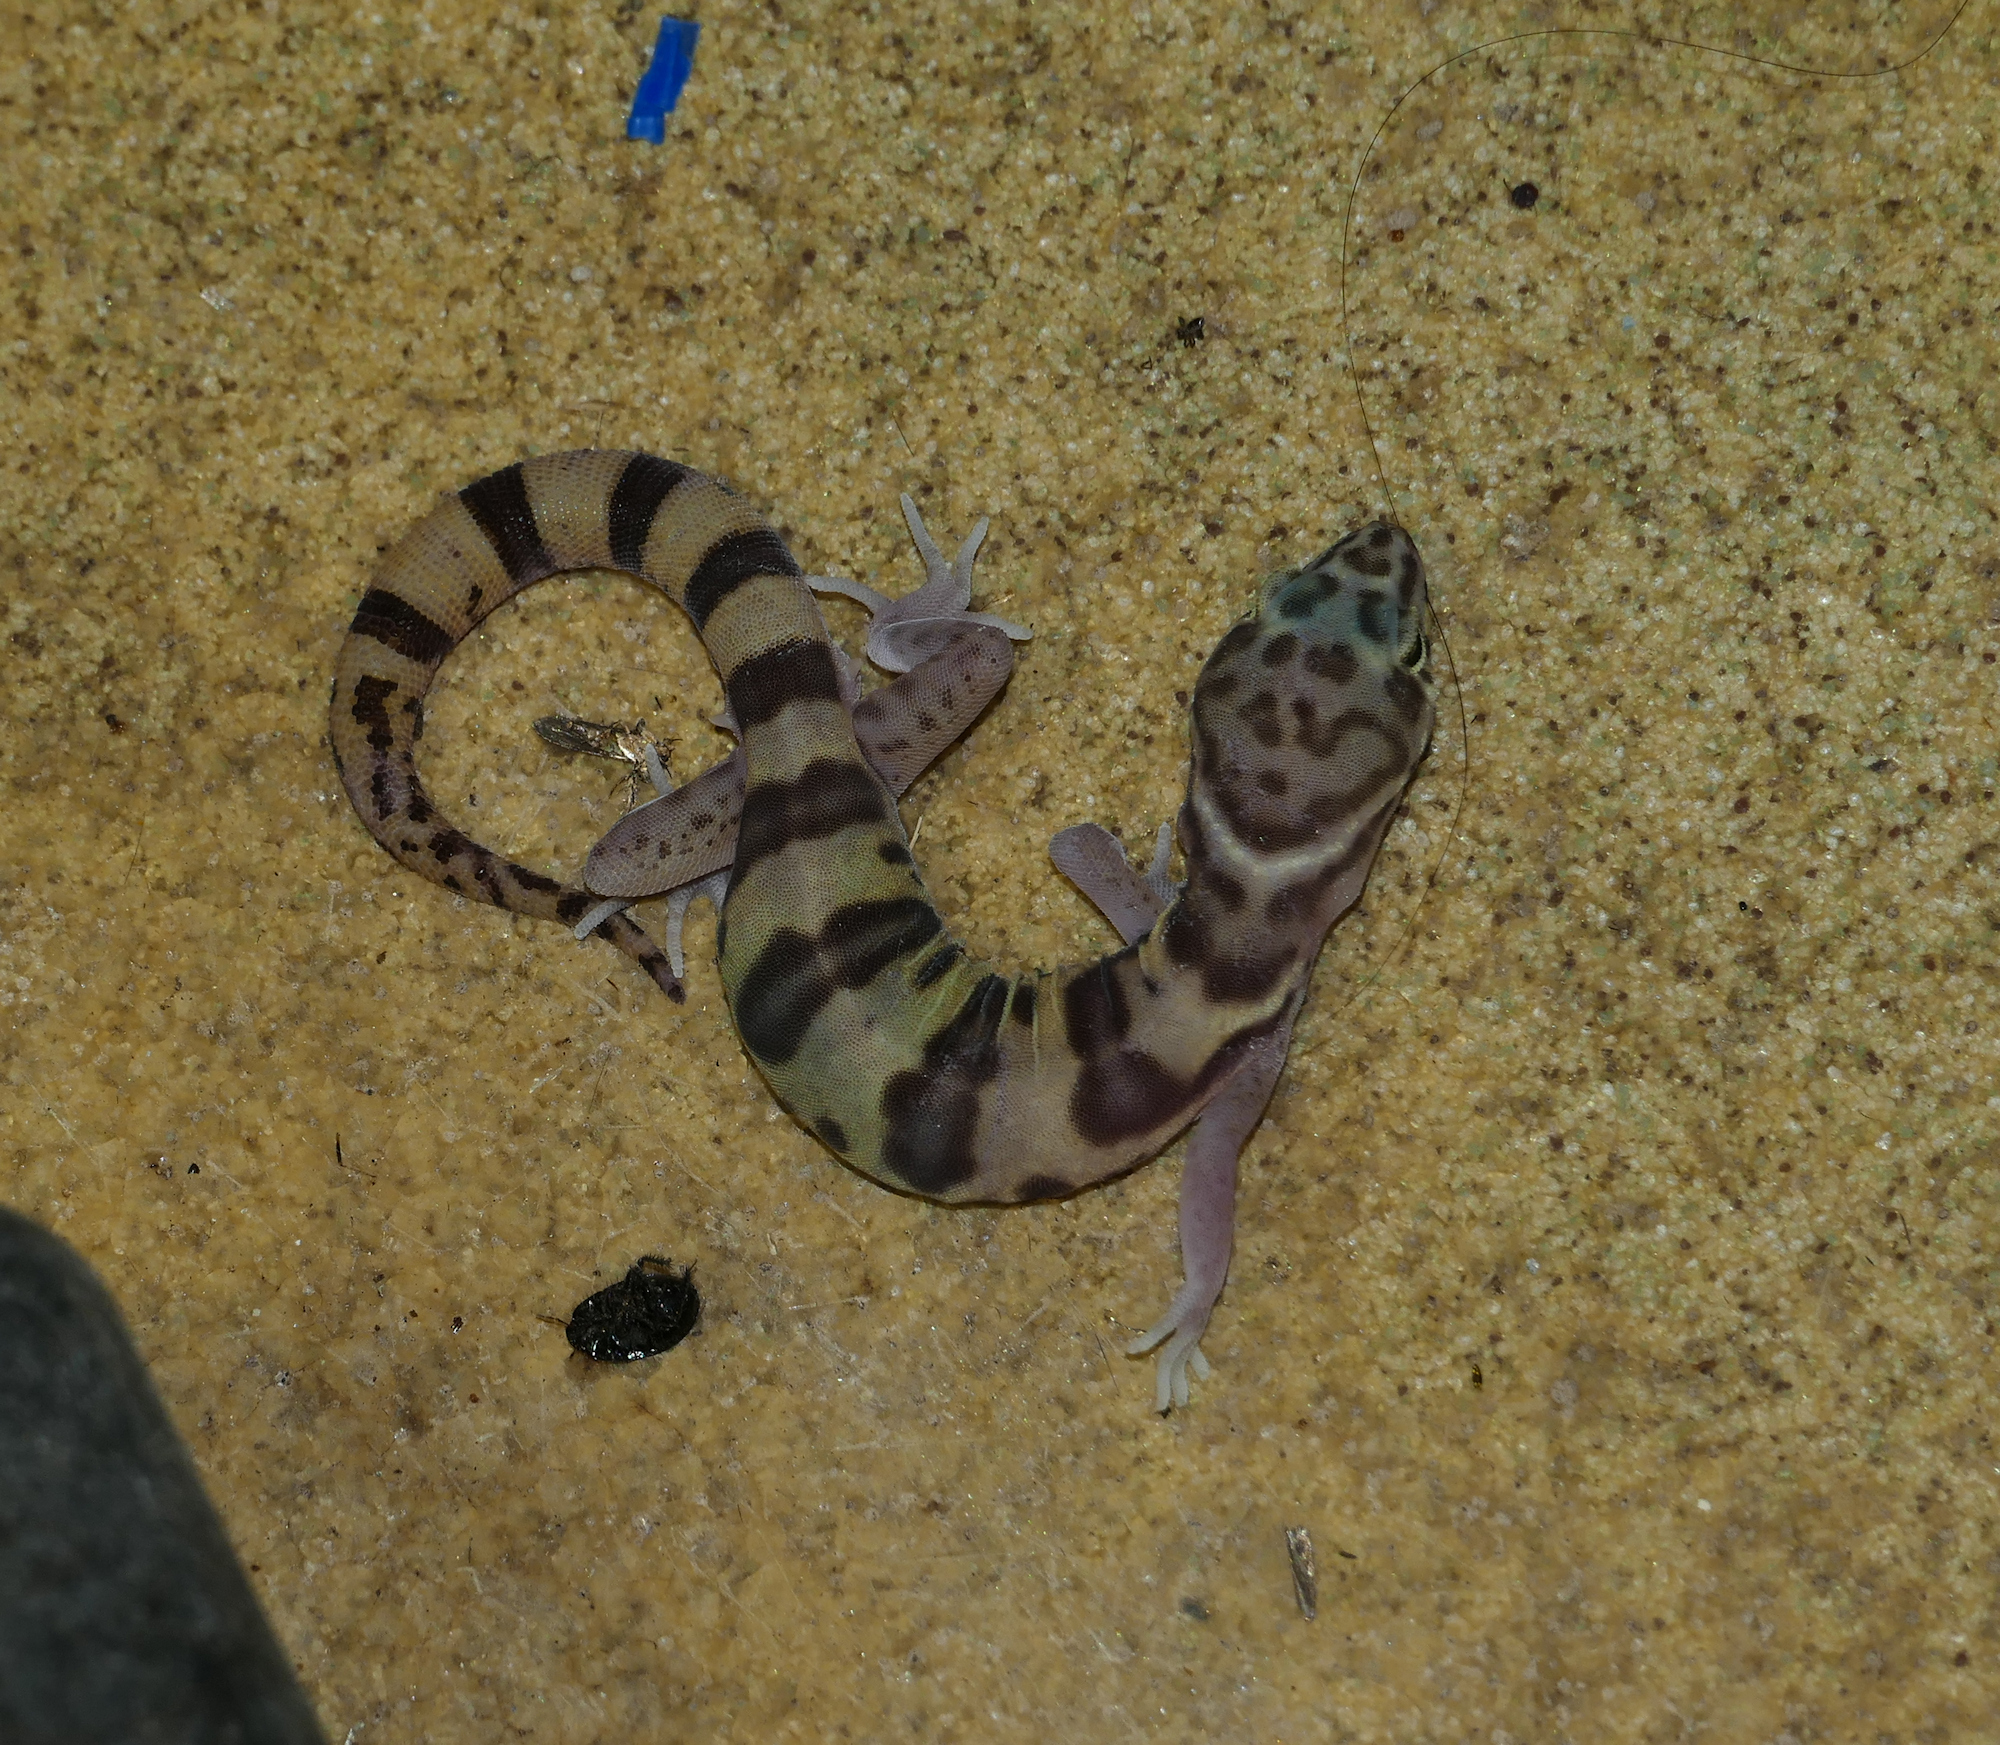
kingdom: Animalia
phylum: Chordata
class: Squamata
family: Eublepharidae
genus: Coleonyx
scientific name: Coleonyx variegatus
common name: Western banded gecko
